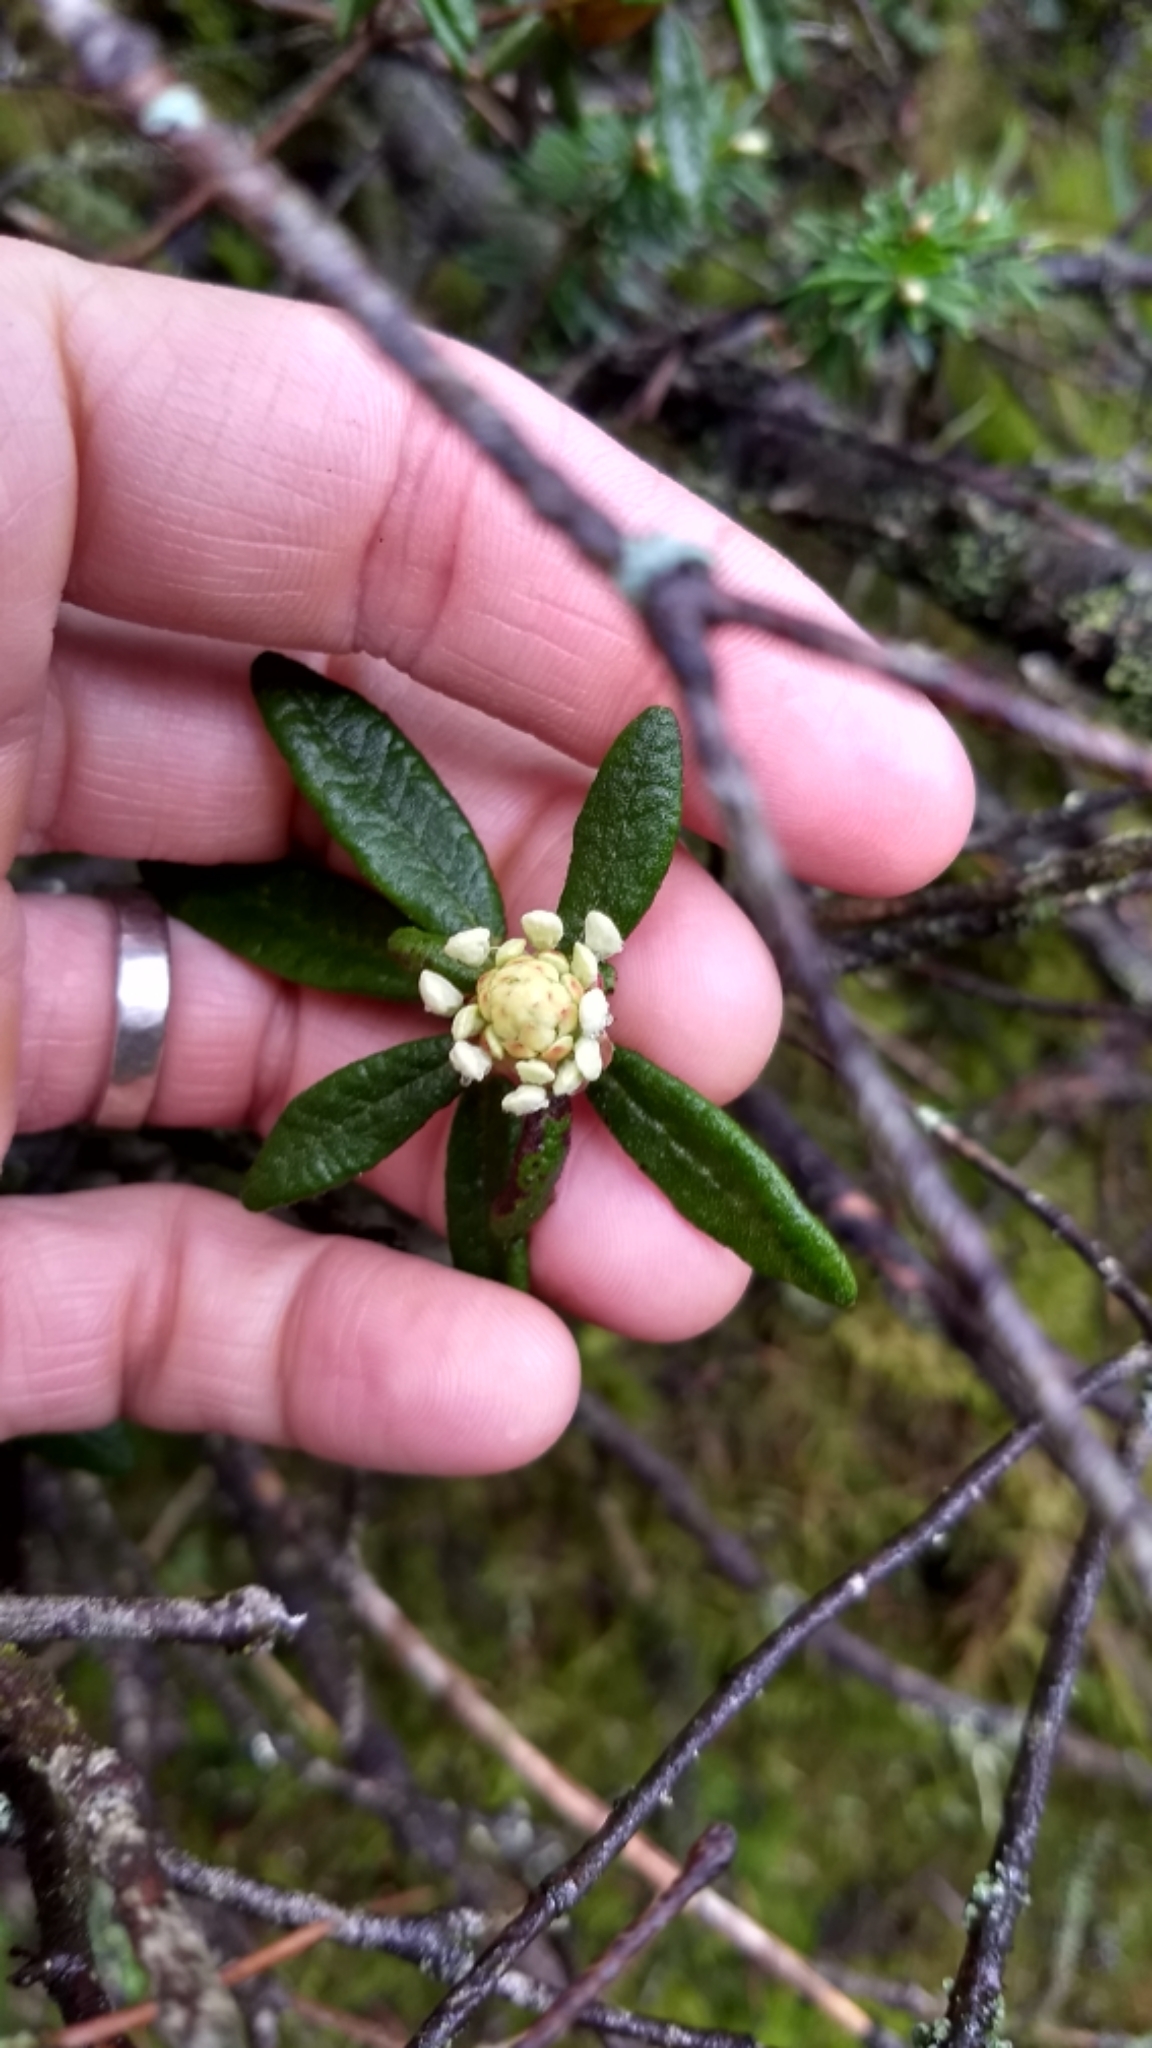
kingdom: Plantae
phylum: Tracheophyta
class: Magnoliopsida
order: Ericales
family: Ericaceae
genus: Rhododendron
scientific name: Rhododendron groenlandicum
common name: Bog labrador tea
